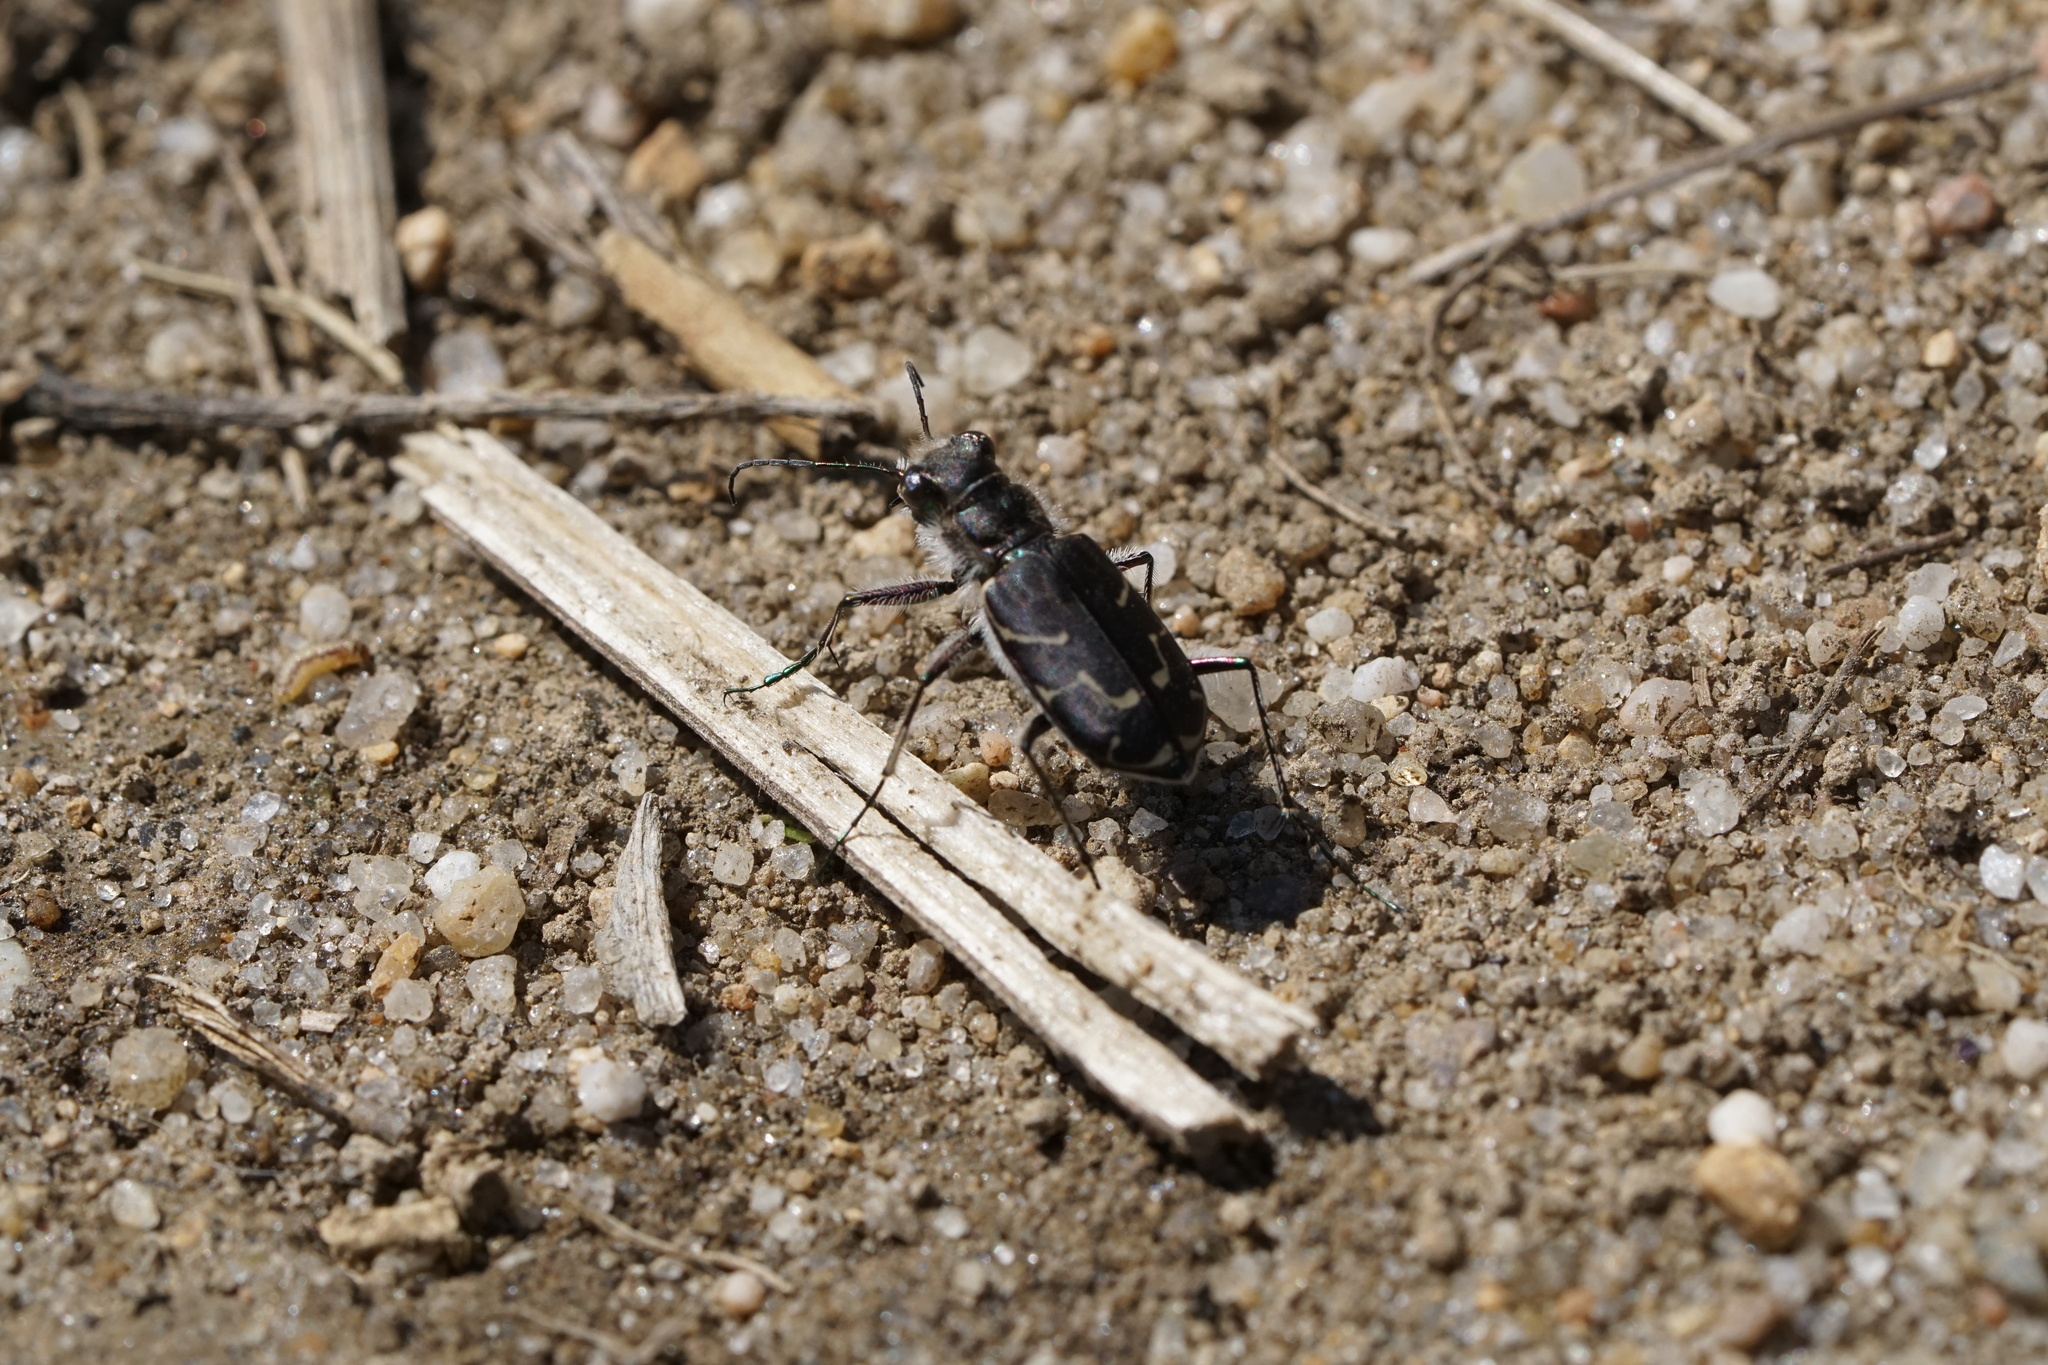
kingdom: Animalia
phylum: Arthropoda
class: Insecta
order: Coleoptera
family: Carabidae
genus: Cicindela
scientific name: Cicindela tranquebarica
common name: Oblique-lined tiger beetle
